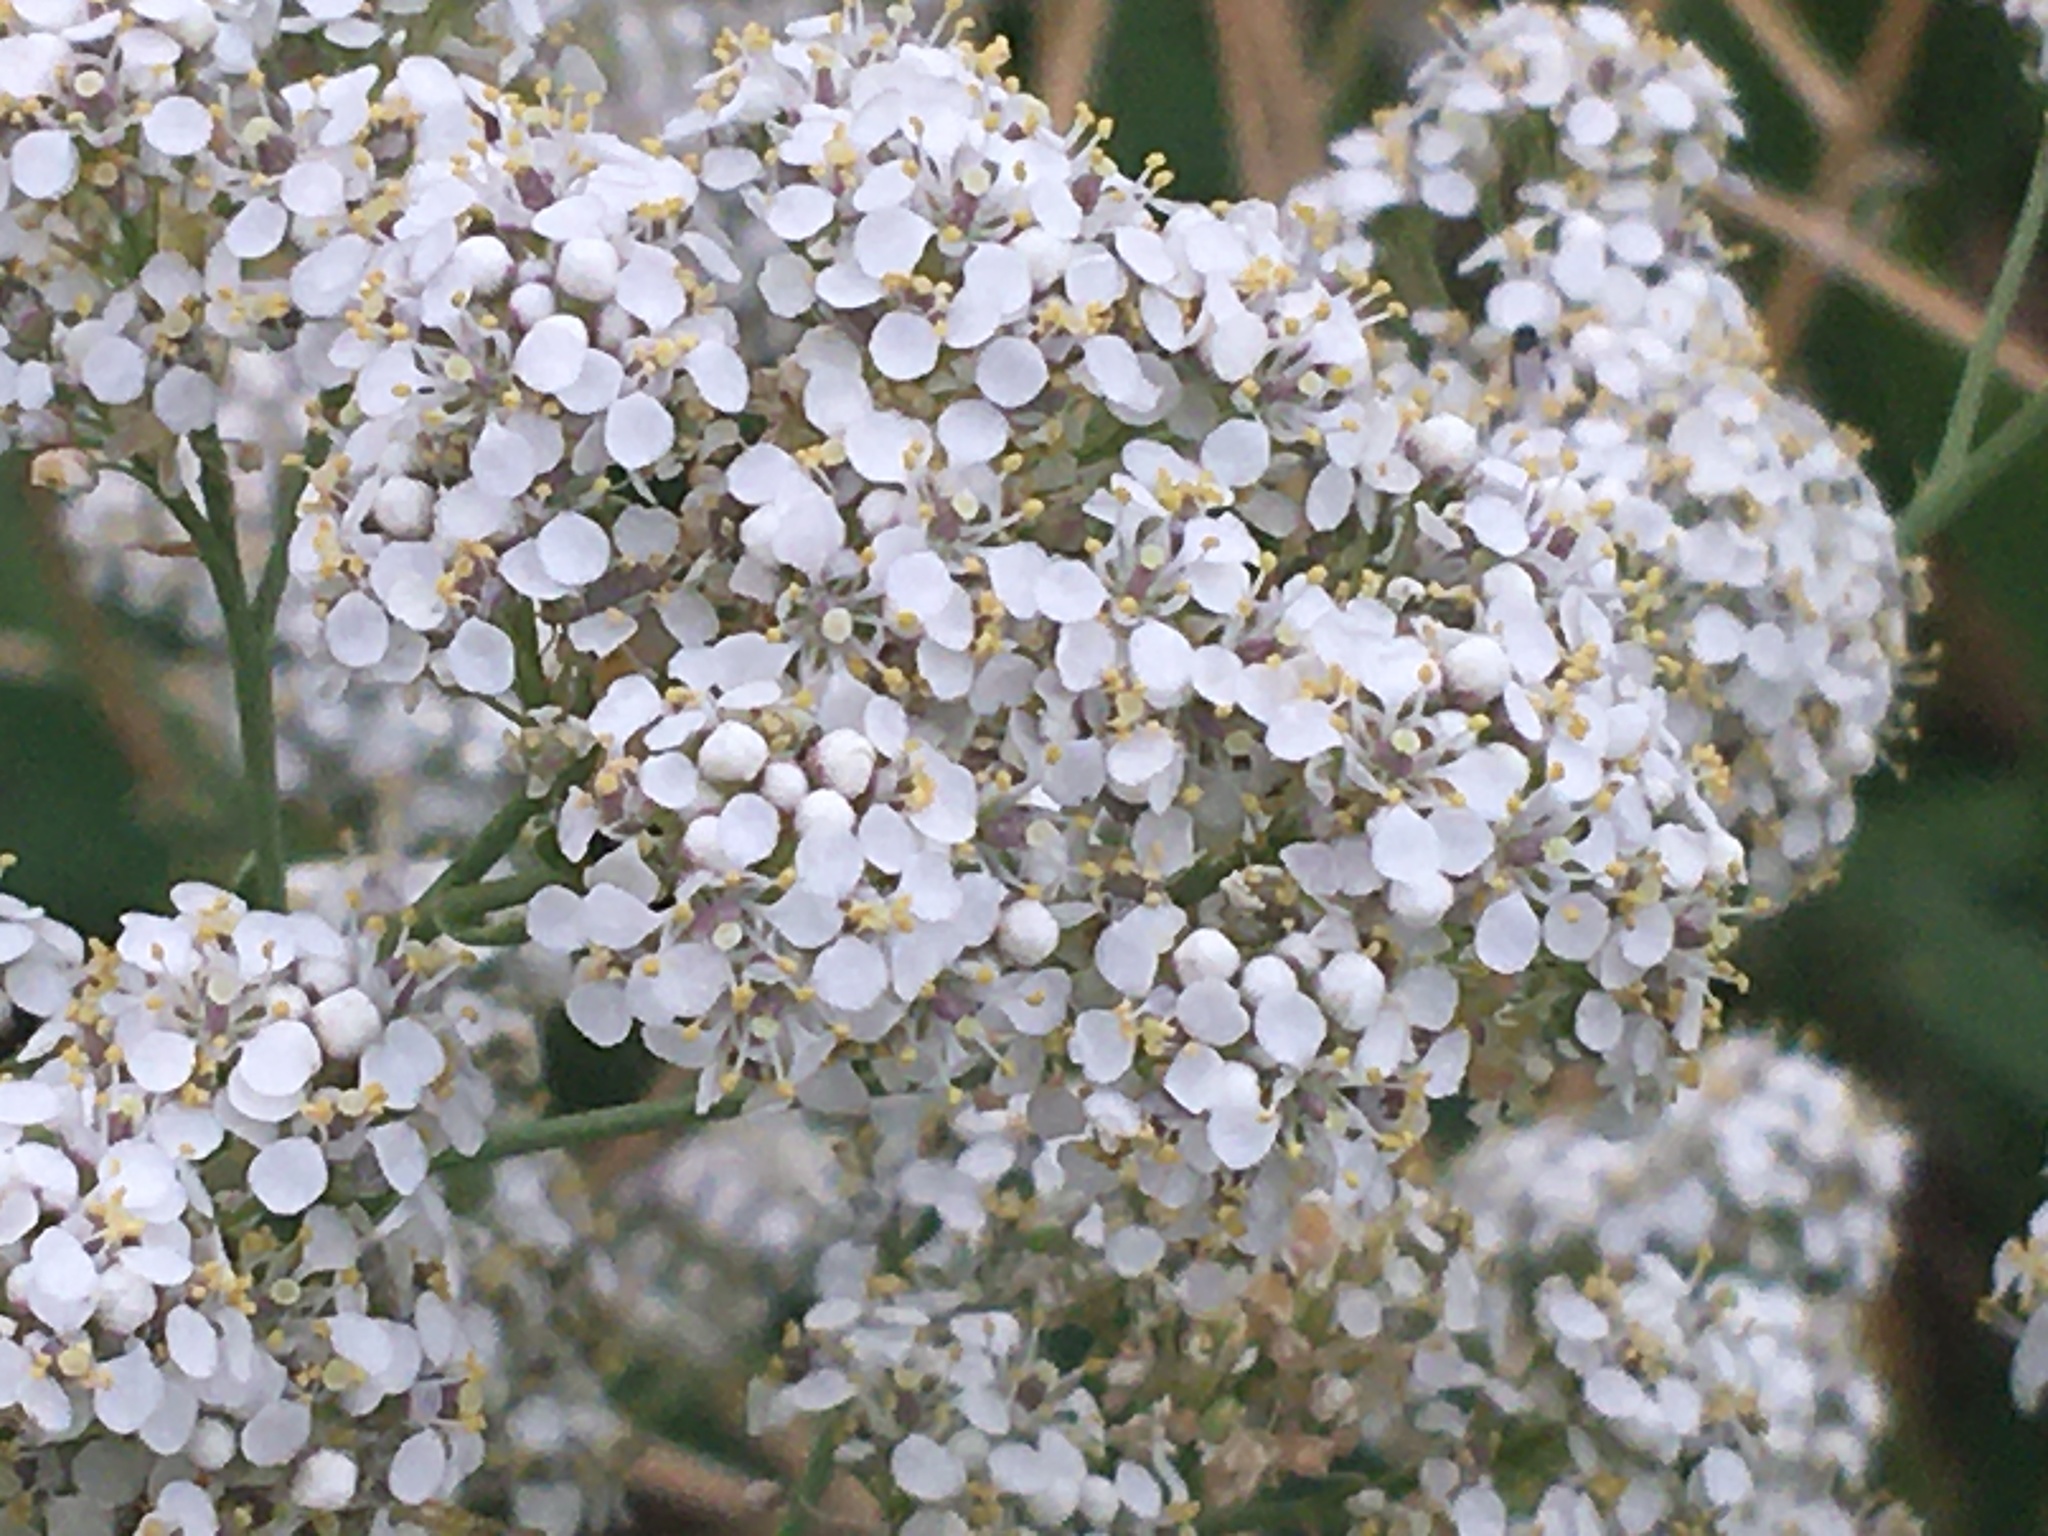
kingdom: Plantae
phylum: Tracheophyta
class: Magnoliopsida
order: Brassicales
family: Brassicaceae
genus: Lepidium
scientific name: Lepidium latifolium
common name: Dittander
